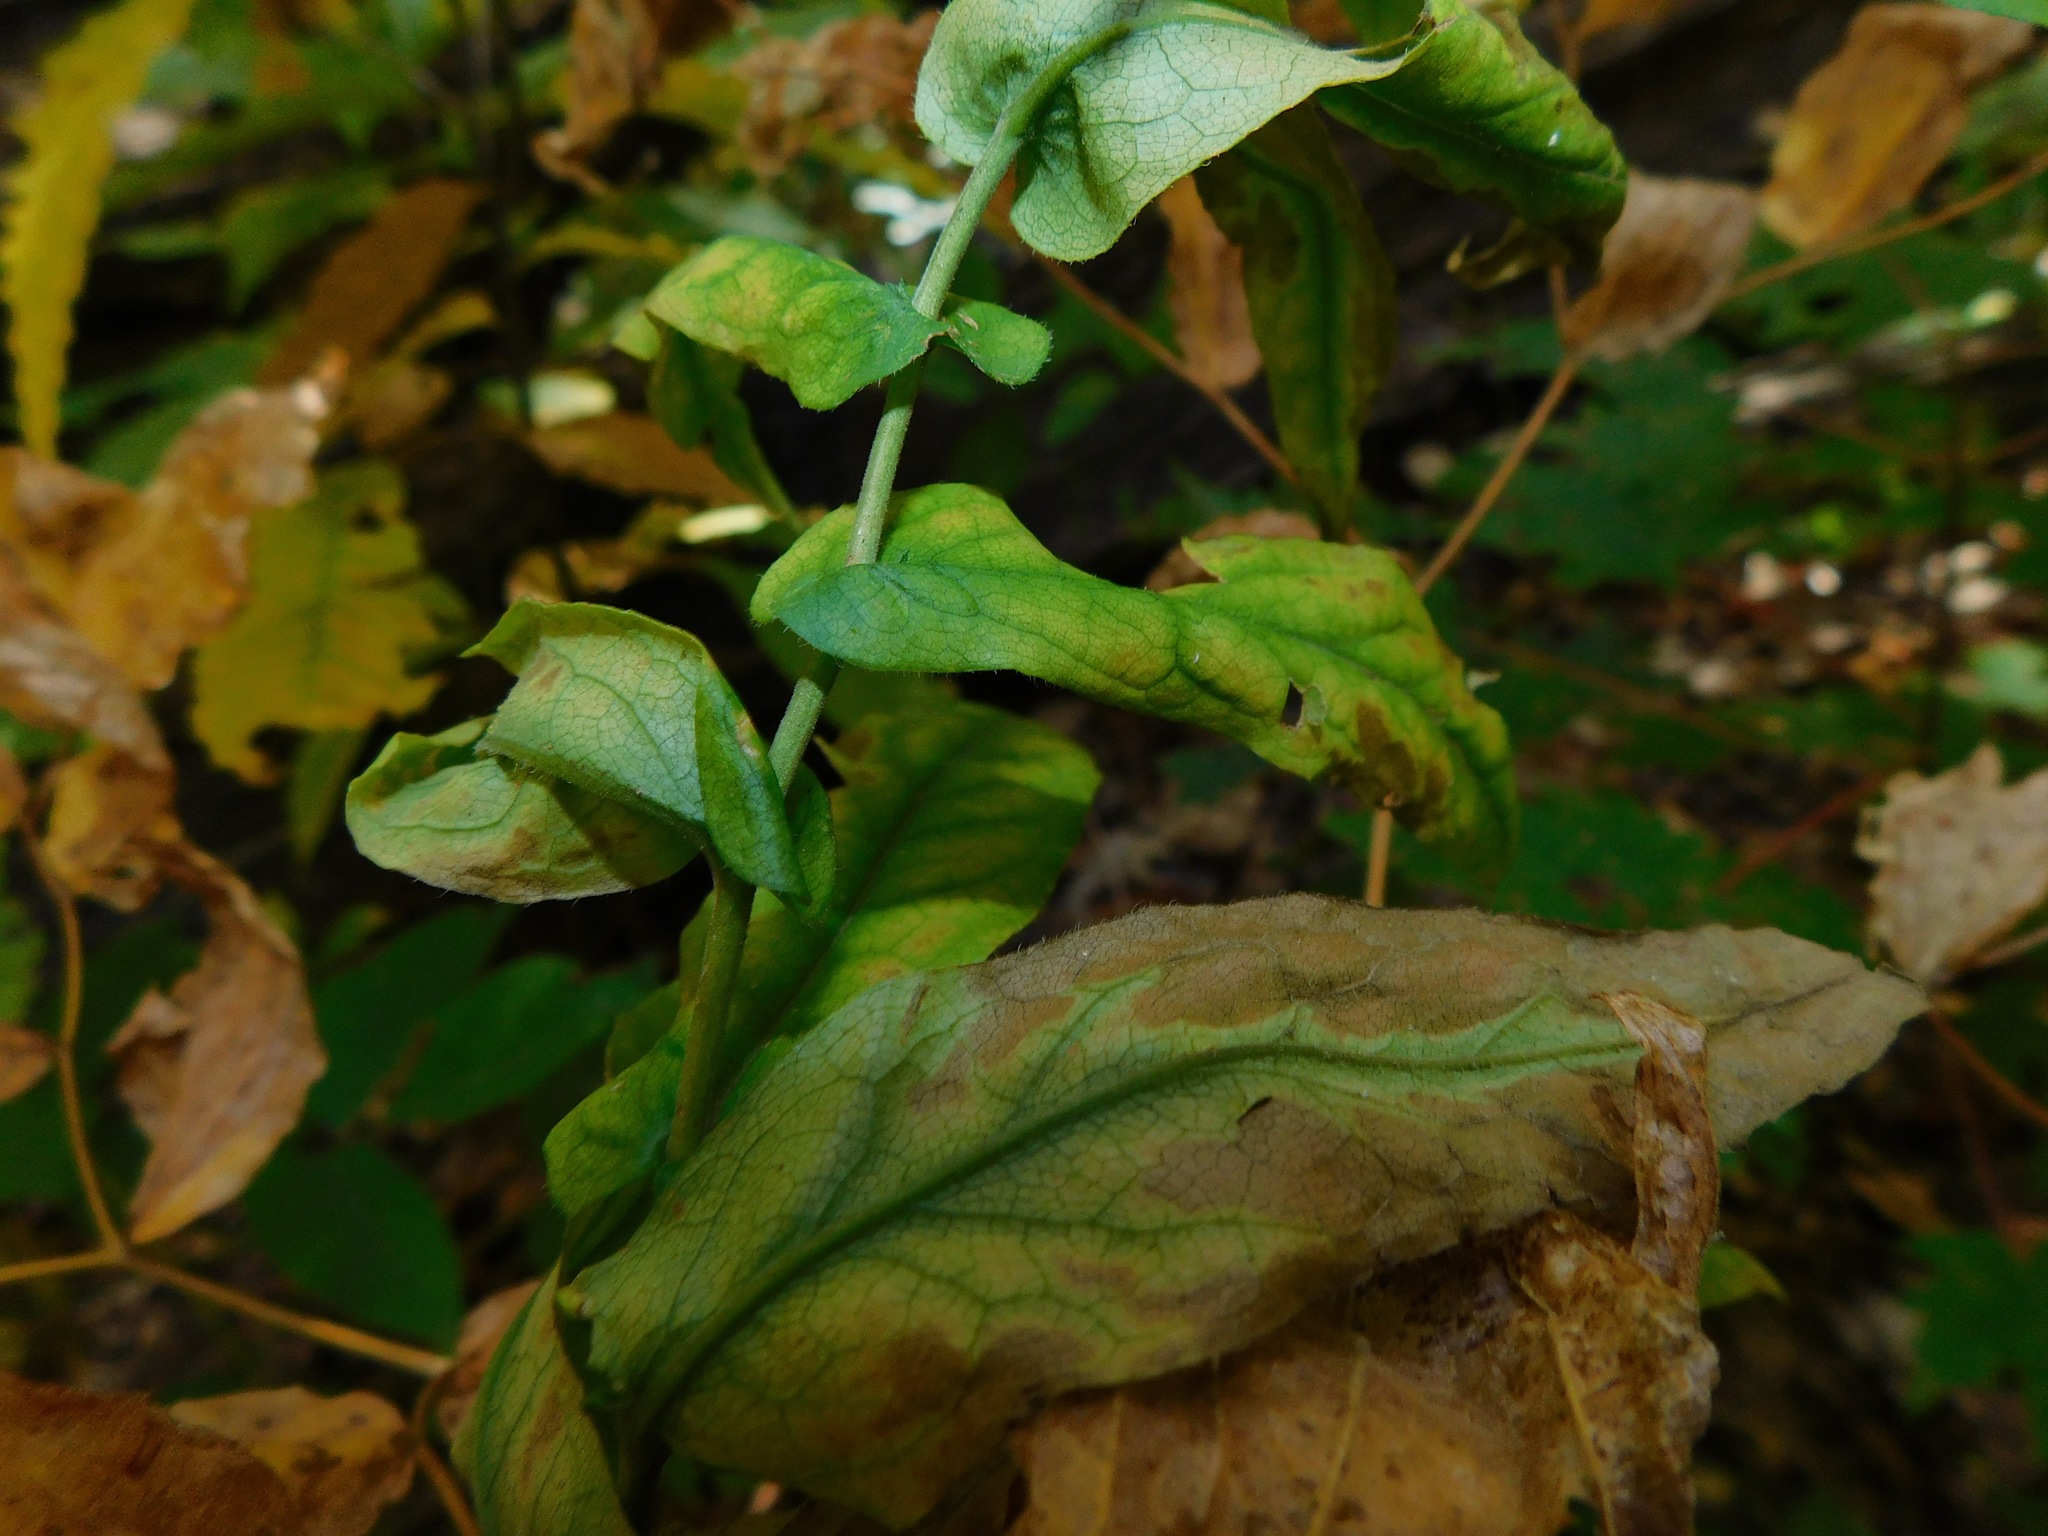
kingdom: Plantae
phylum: Tracheophyta
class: Magnoliopsida
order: Asterales
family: Asteraceae
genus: Symphyotrichum
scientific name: Symphyotrichum phlogifolium
